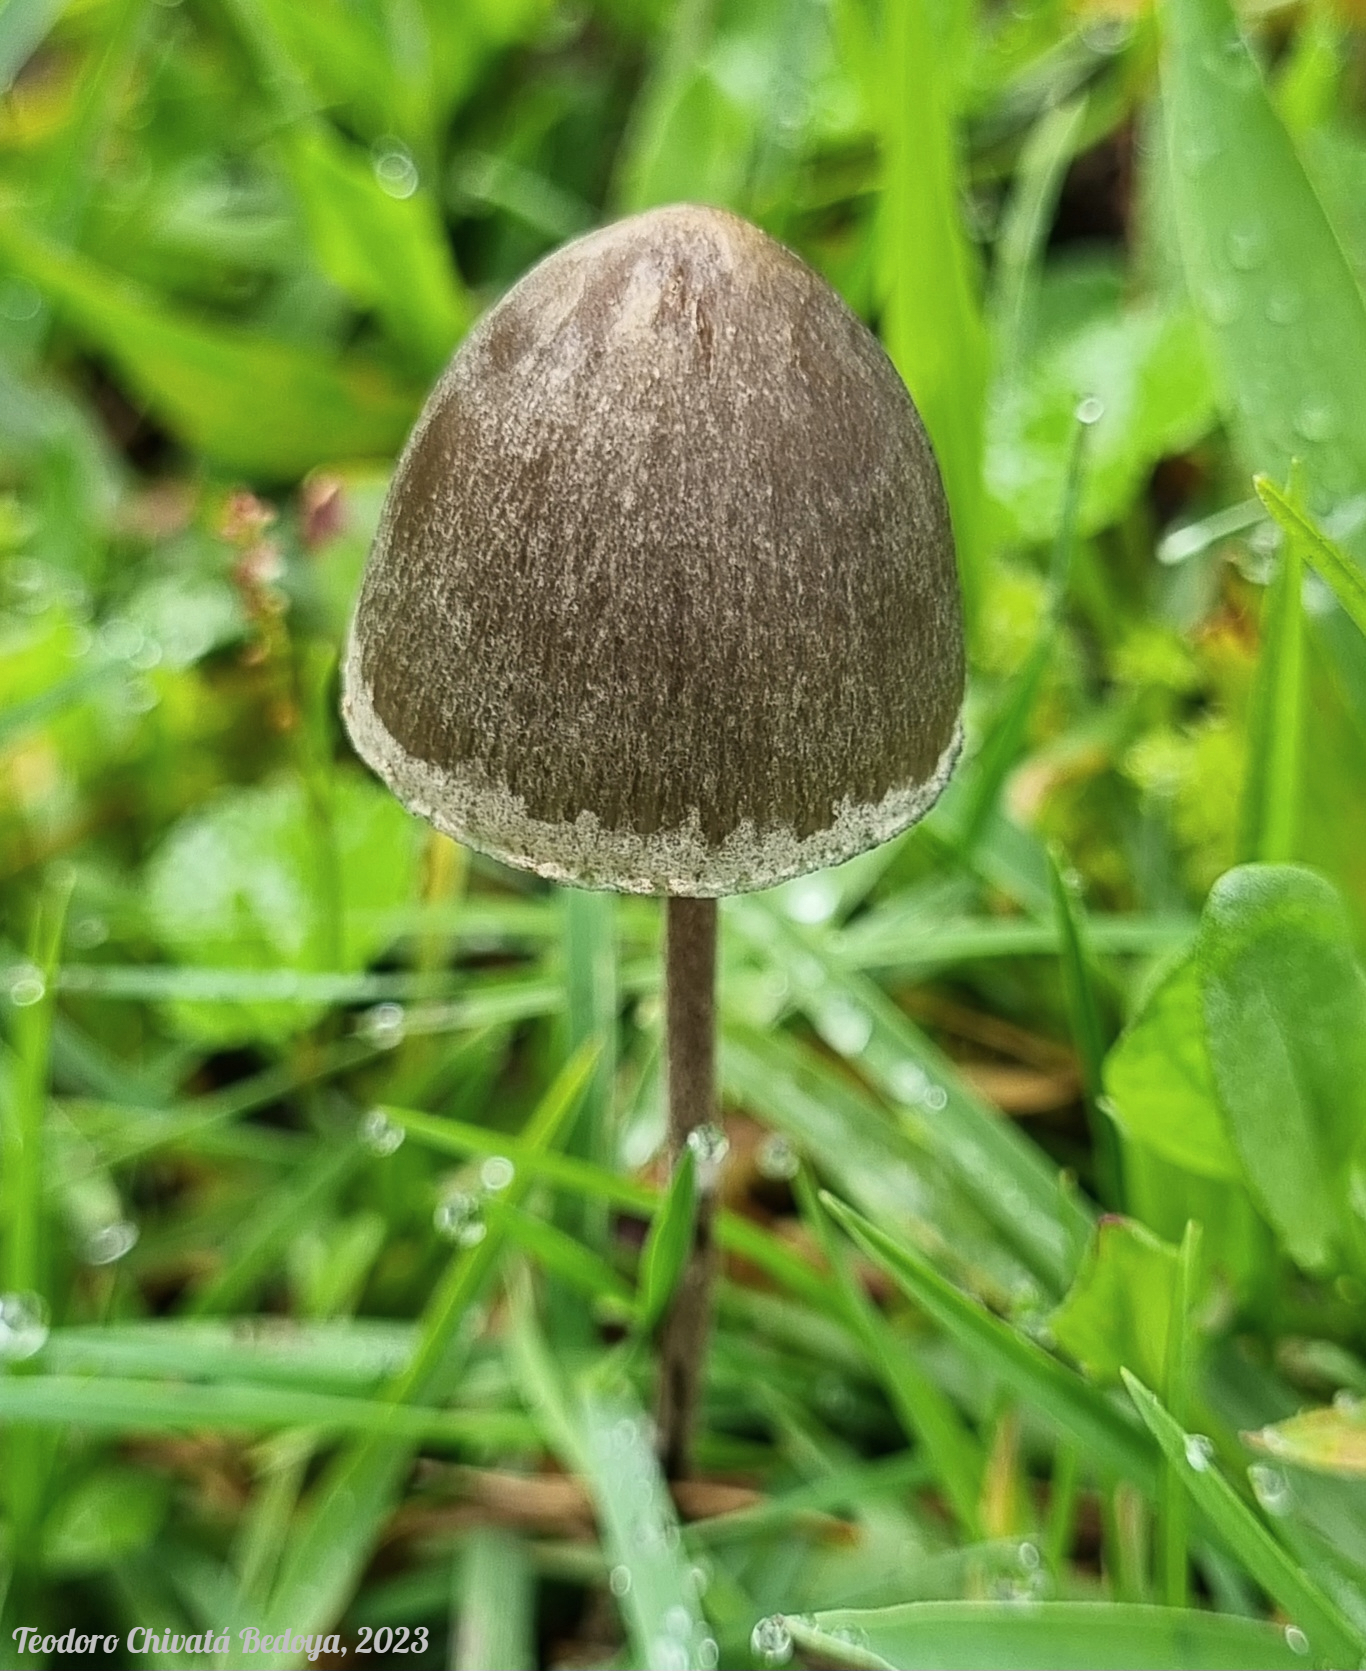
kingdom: Fungi
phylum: Basidiomycota
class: Agaricomycetes
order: Agaricales
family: Bolbitiaceae
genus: Panaeolus
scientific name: Panaeolus papilionaceus
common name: Petticoat mottlegill
